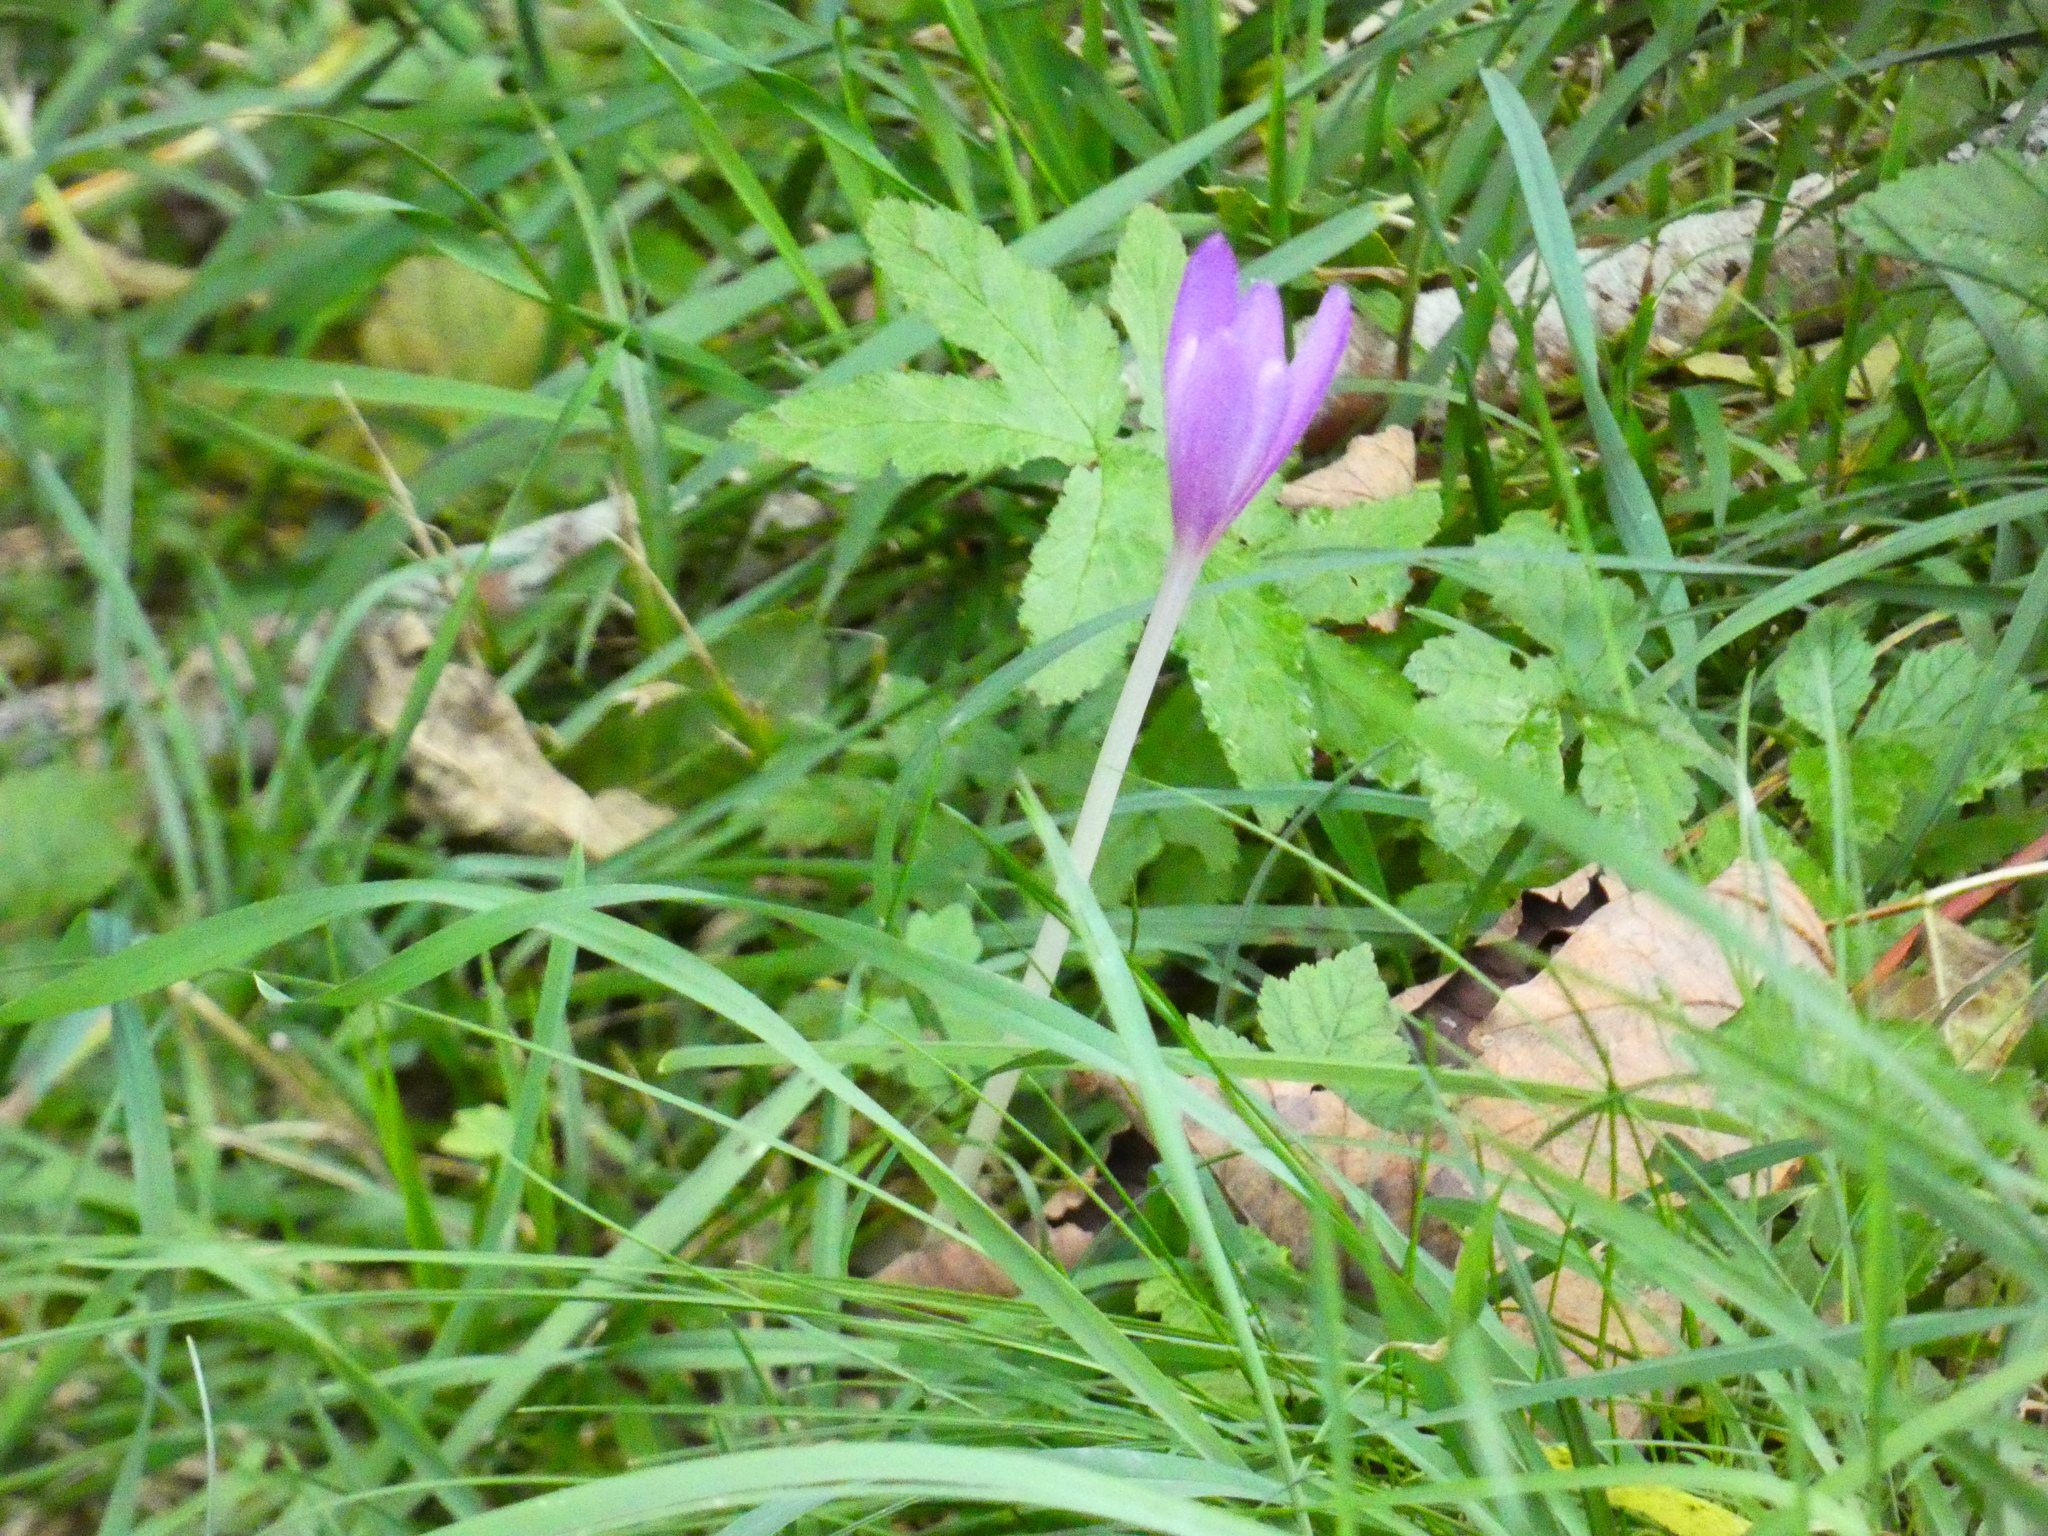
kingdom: Plantae
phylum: Tracheophyta
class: Liliopsida
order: Liliales
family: Colchicaceae
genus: Colchicum
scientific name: Colchicum autumnale
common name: Autumn crocus
